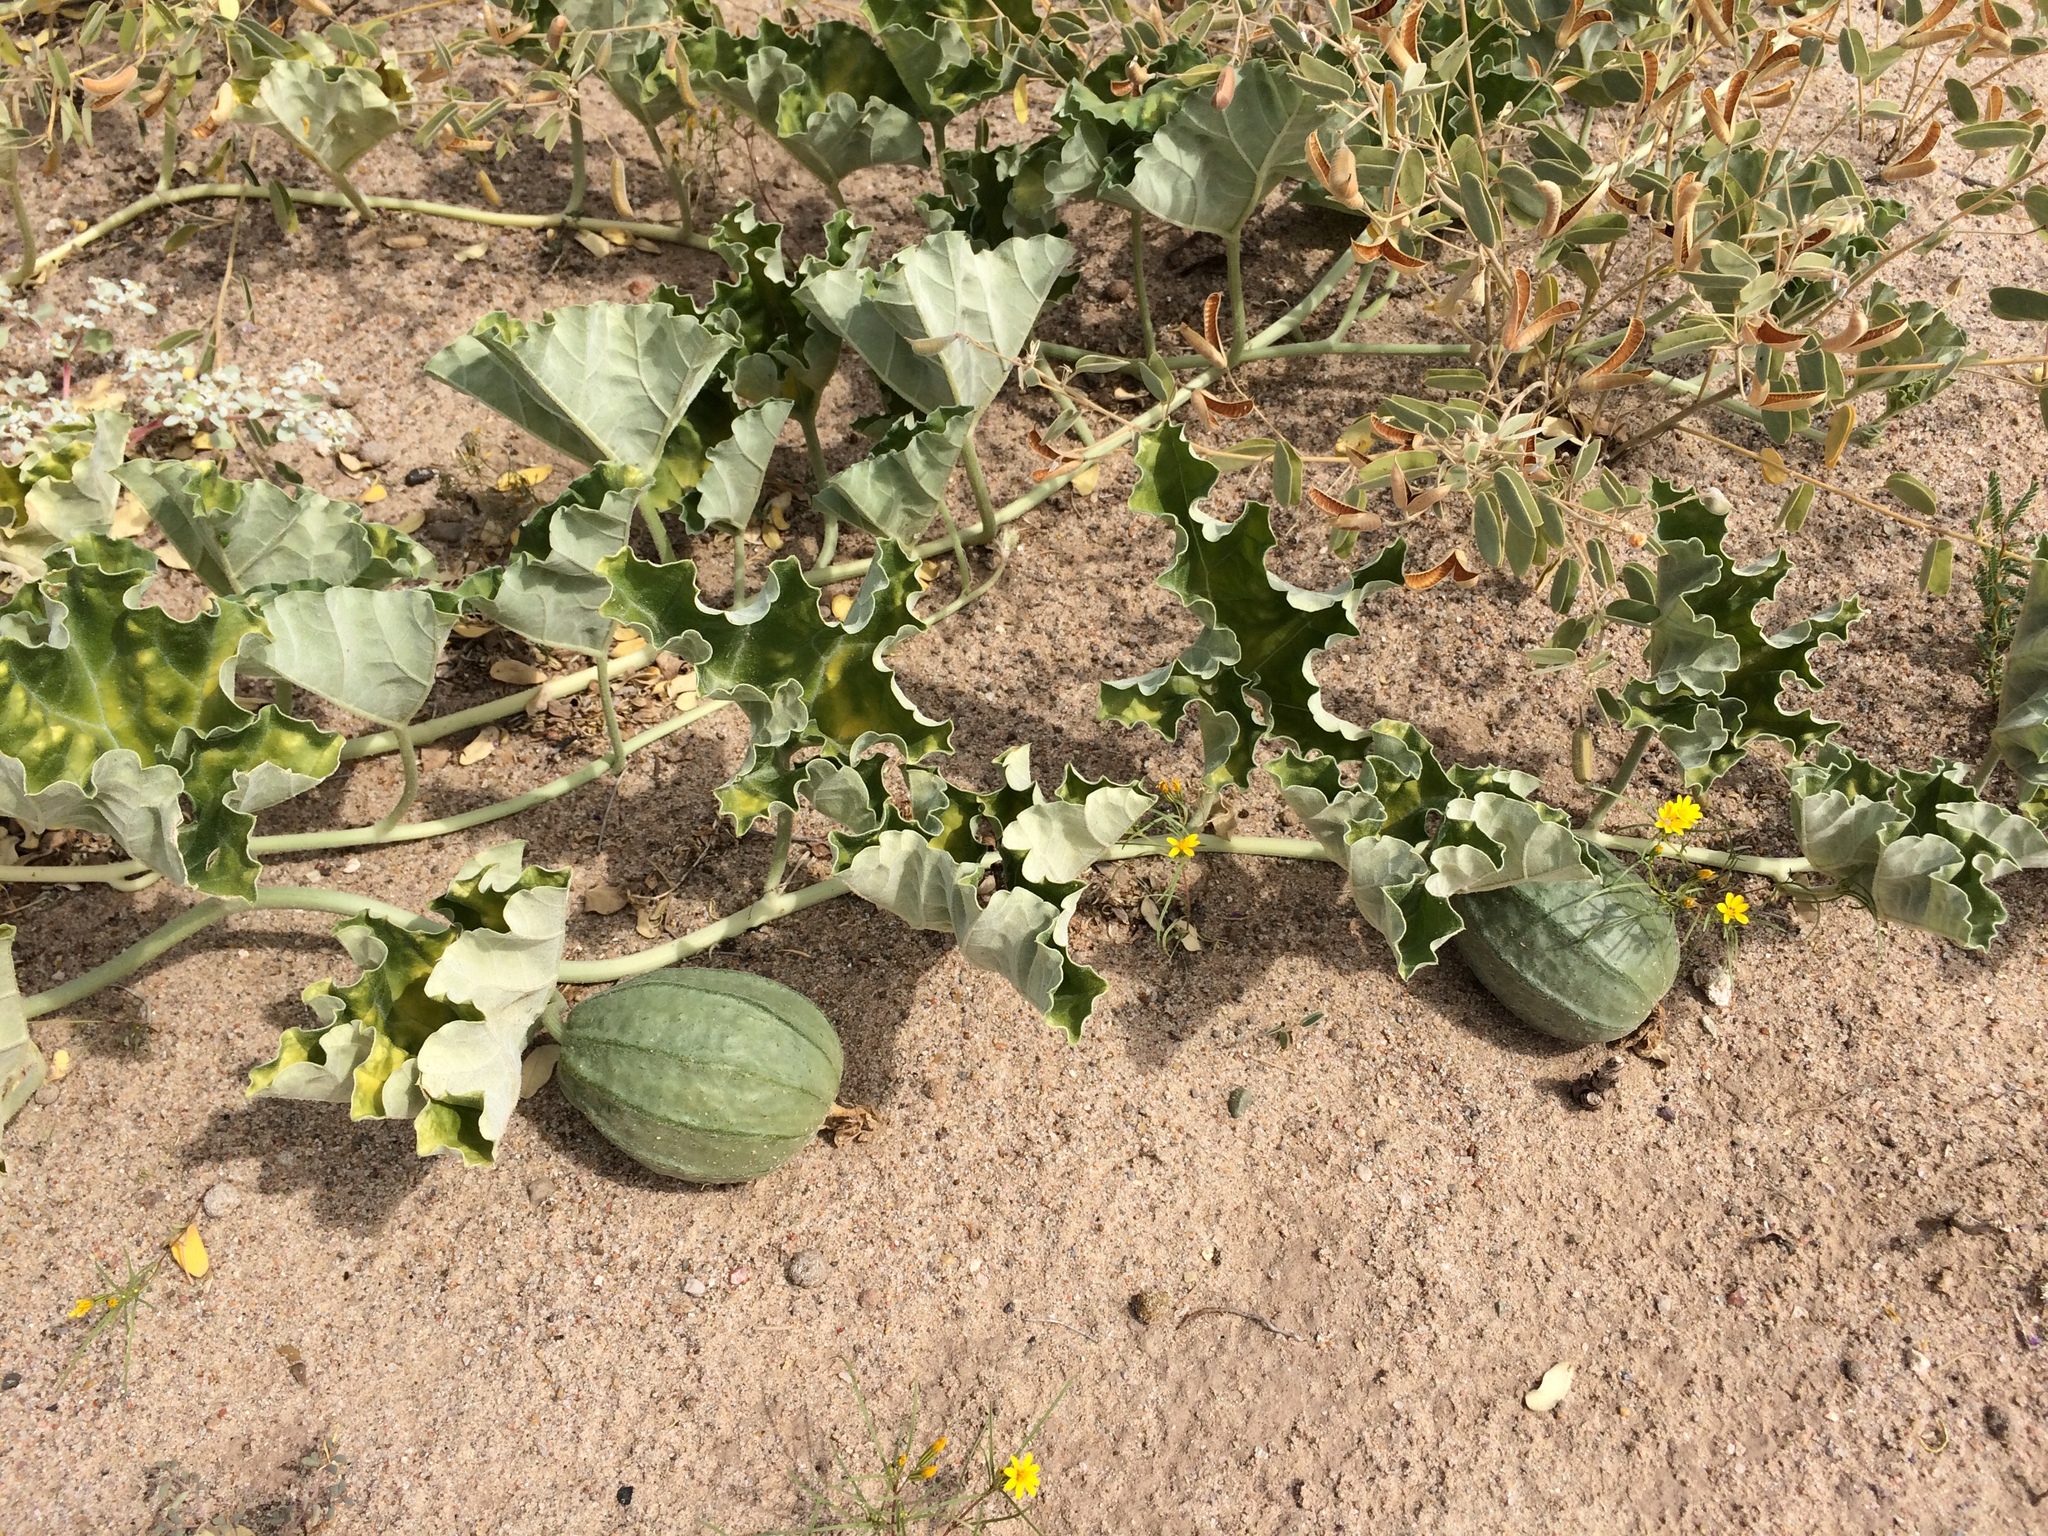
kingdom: Plantae
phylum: Tracheophyta
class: Magnoliopsida
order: Cucurbitales
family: Cucurbitaceae
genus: Apodanthera
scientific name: Apodanthera undulata
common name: Melon-loco
